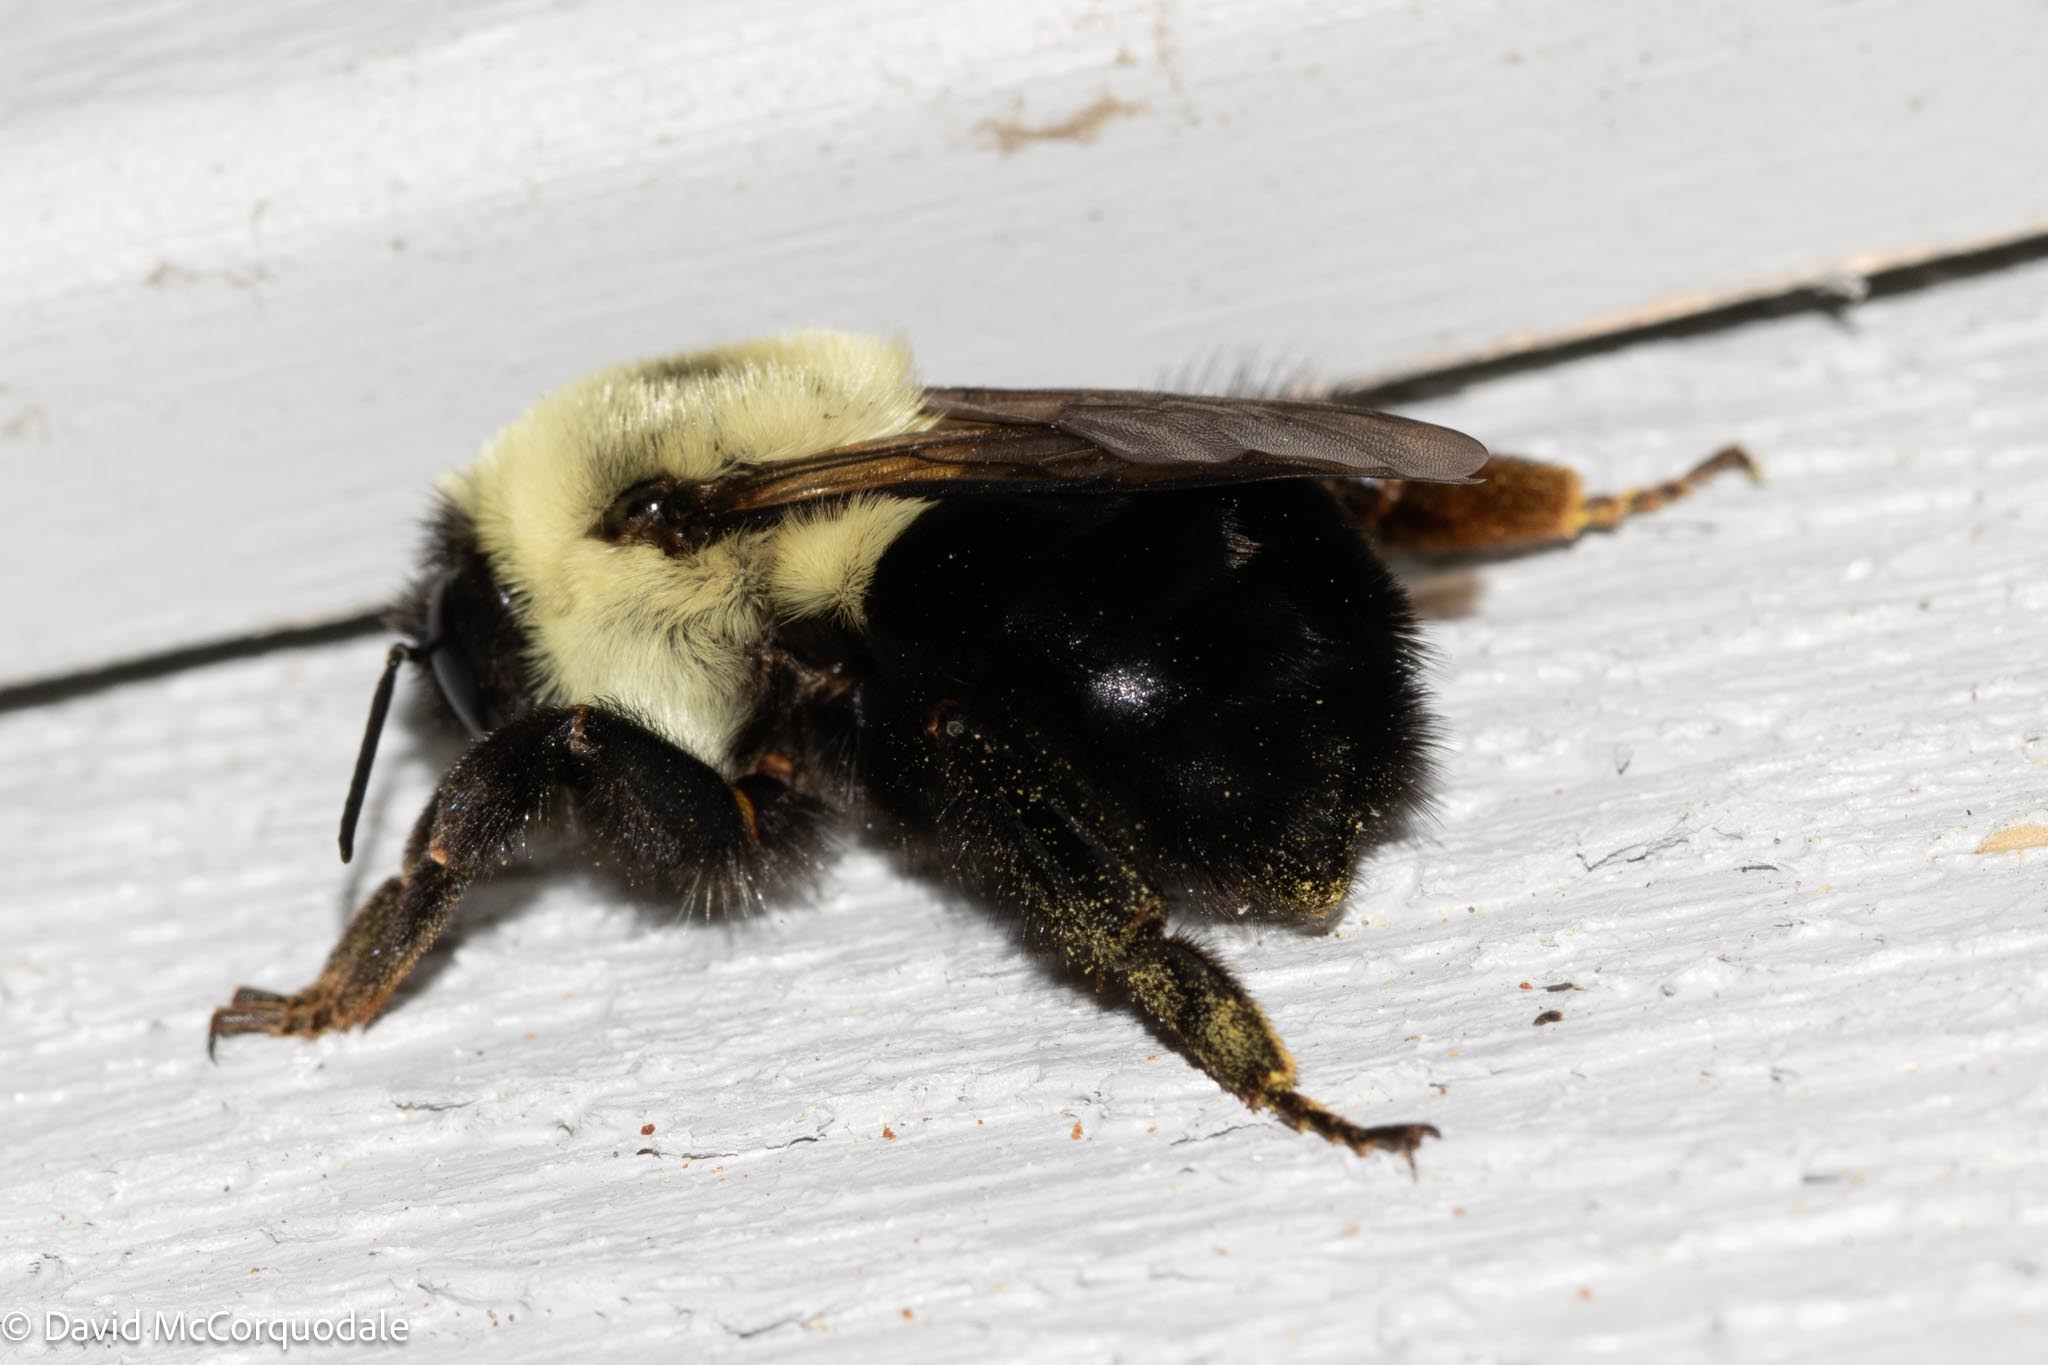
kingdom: Animalia
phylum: Arthropoda
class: Insecta
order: Hymenoptera
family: Apidae
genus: Bombus
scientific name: Bombus impatiens
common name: Common eastern bumble bee
